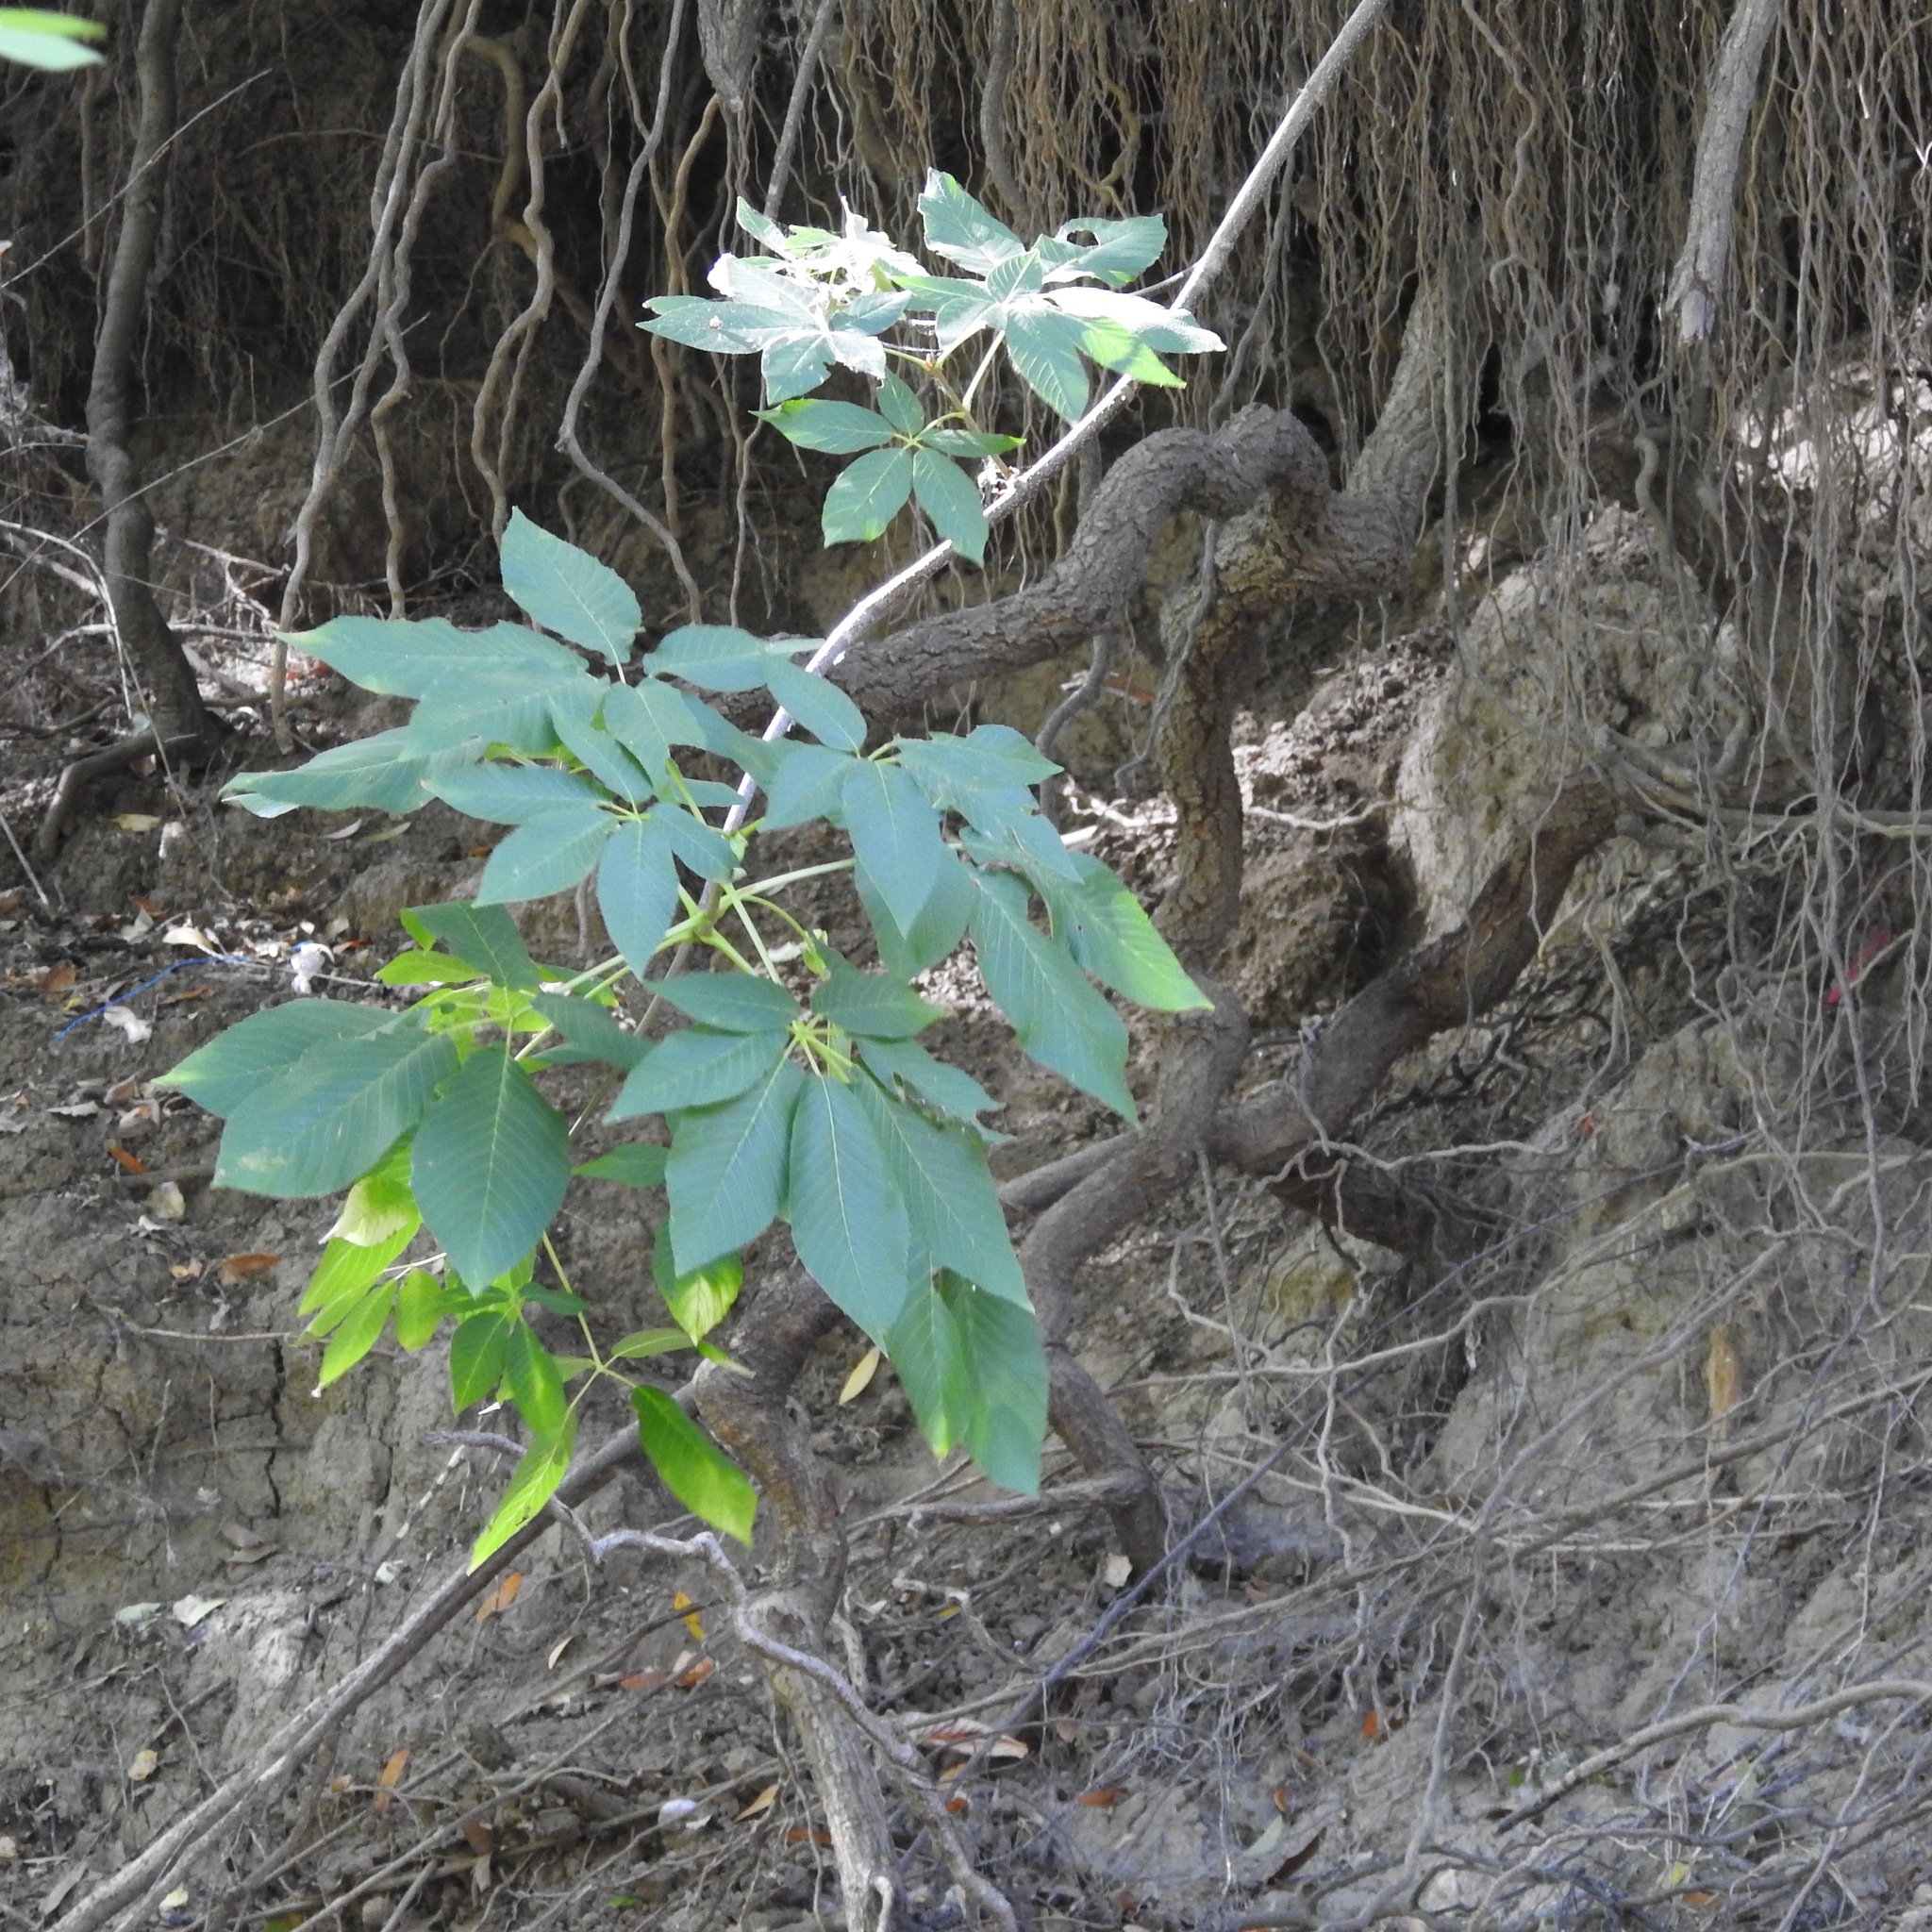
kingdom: Plantae
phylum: Tracheophyta
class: Magnoliopsida
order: Sapindales
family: Sapindaceae
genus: Aesculus
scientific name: Aesculus californica
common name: California buckeye
